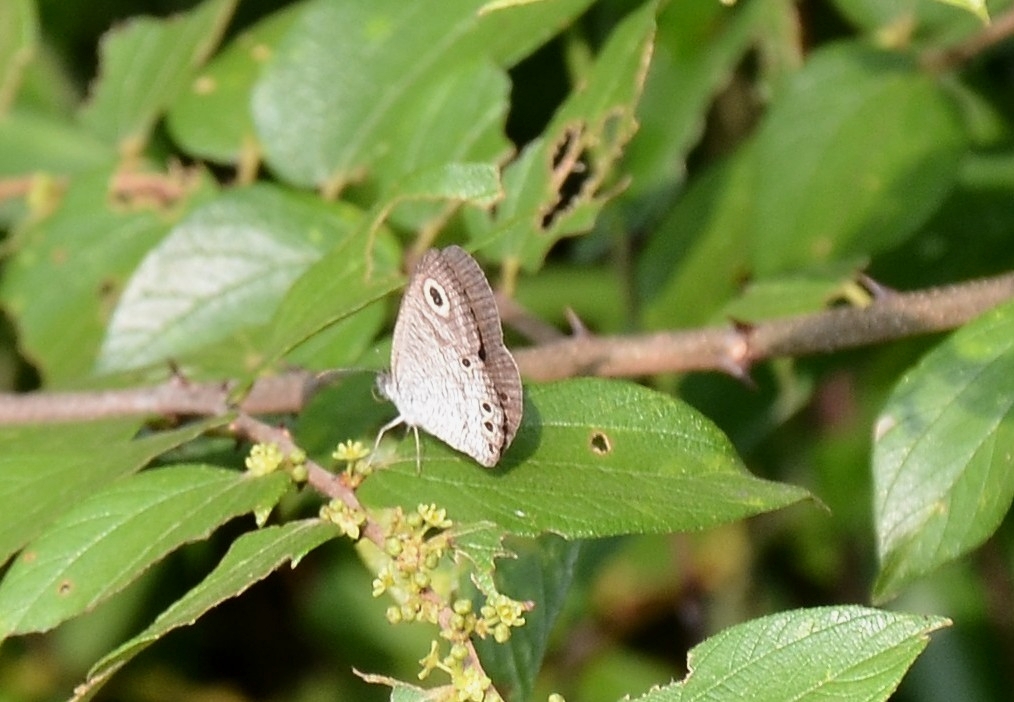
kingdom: Animalia
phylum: Arthropoda
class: Insecta
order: Lepidoptera
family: Nymphalidae
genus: Ypthima
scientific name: Ypthima huebneri
